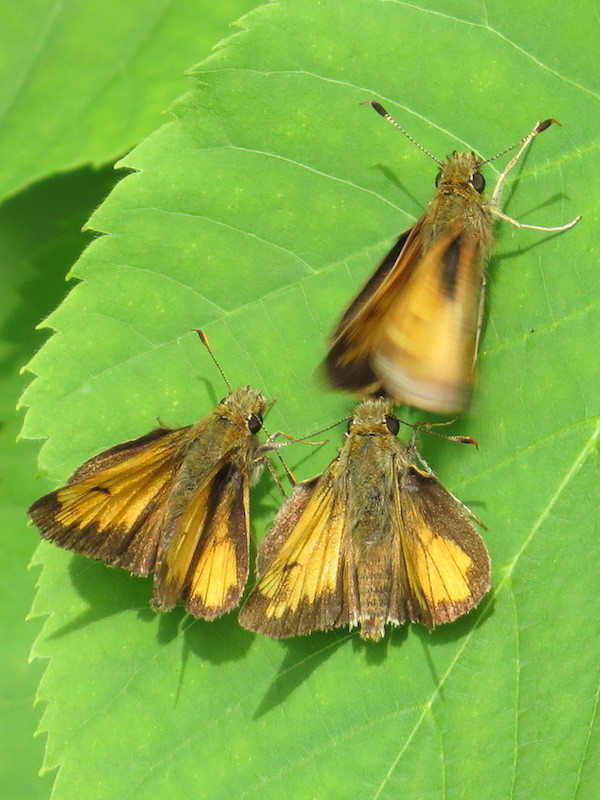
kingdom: Animalia
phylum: Arthropoda
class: Insecta
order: Lepidoptera
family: Hesperiidae
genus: Lon
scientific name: Lon hobomok
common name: Hobomok skipper
